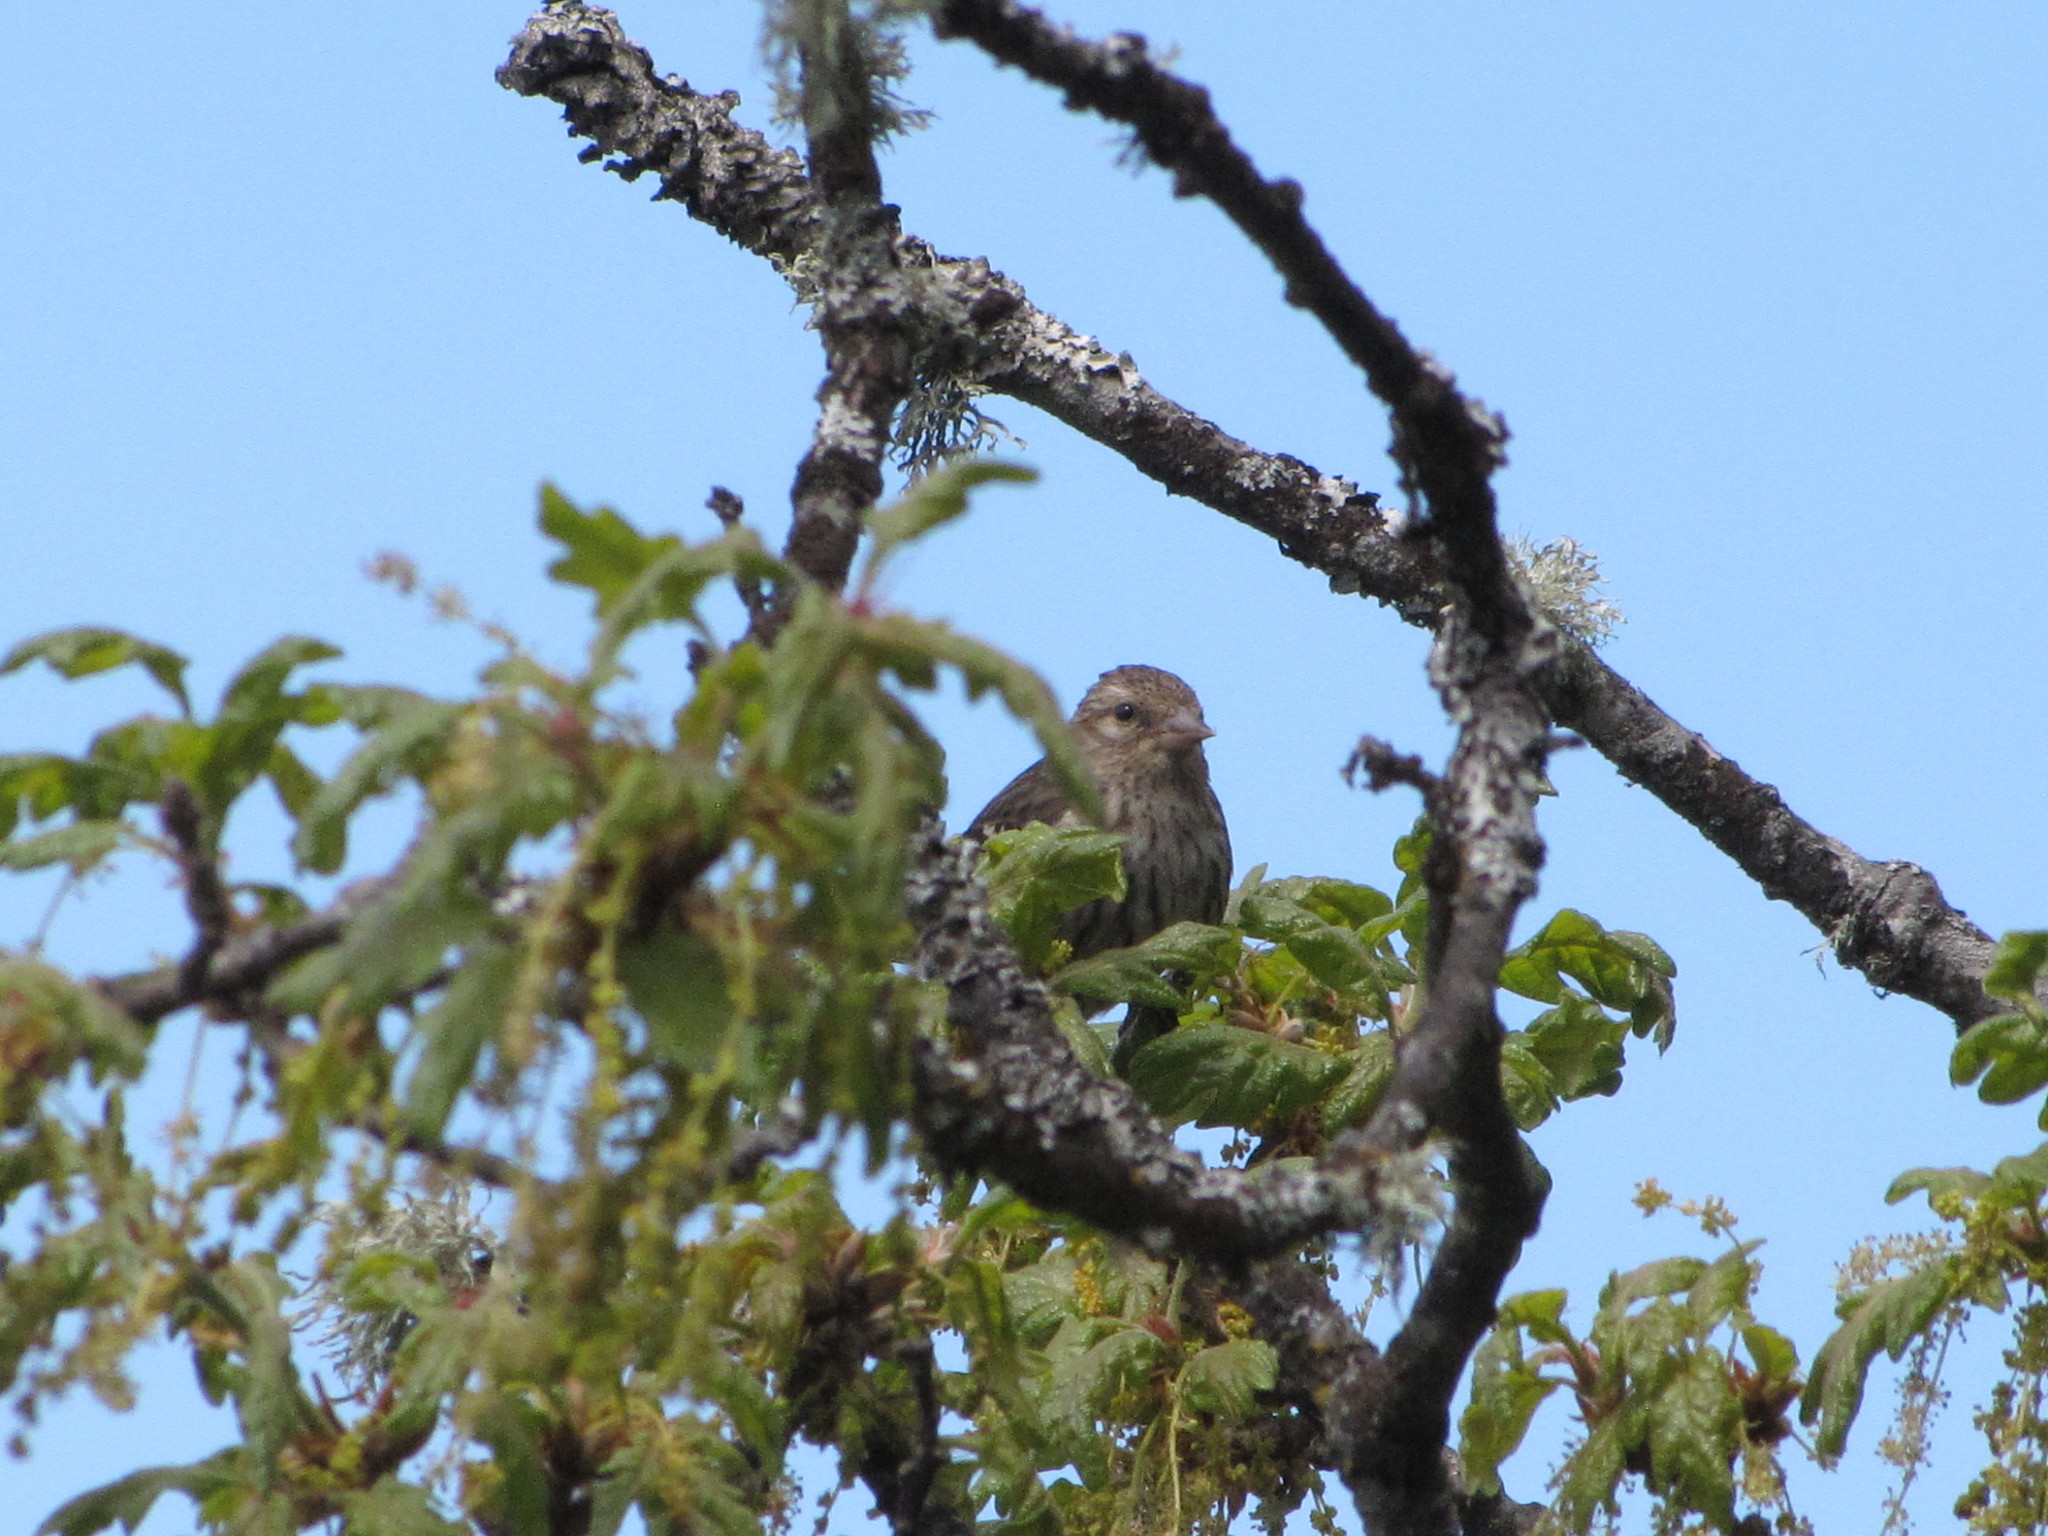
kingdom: Animalia
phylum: Chordata
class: Aves
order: Passeriformes
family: Fringillidae
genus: Spinus
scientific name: Spinus pinus
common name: Pine siskin
